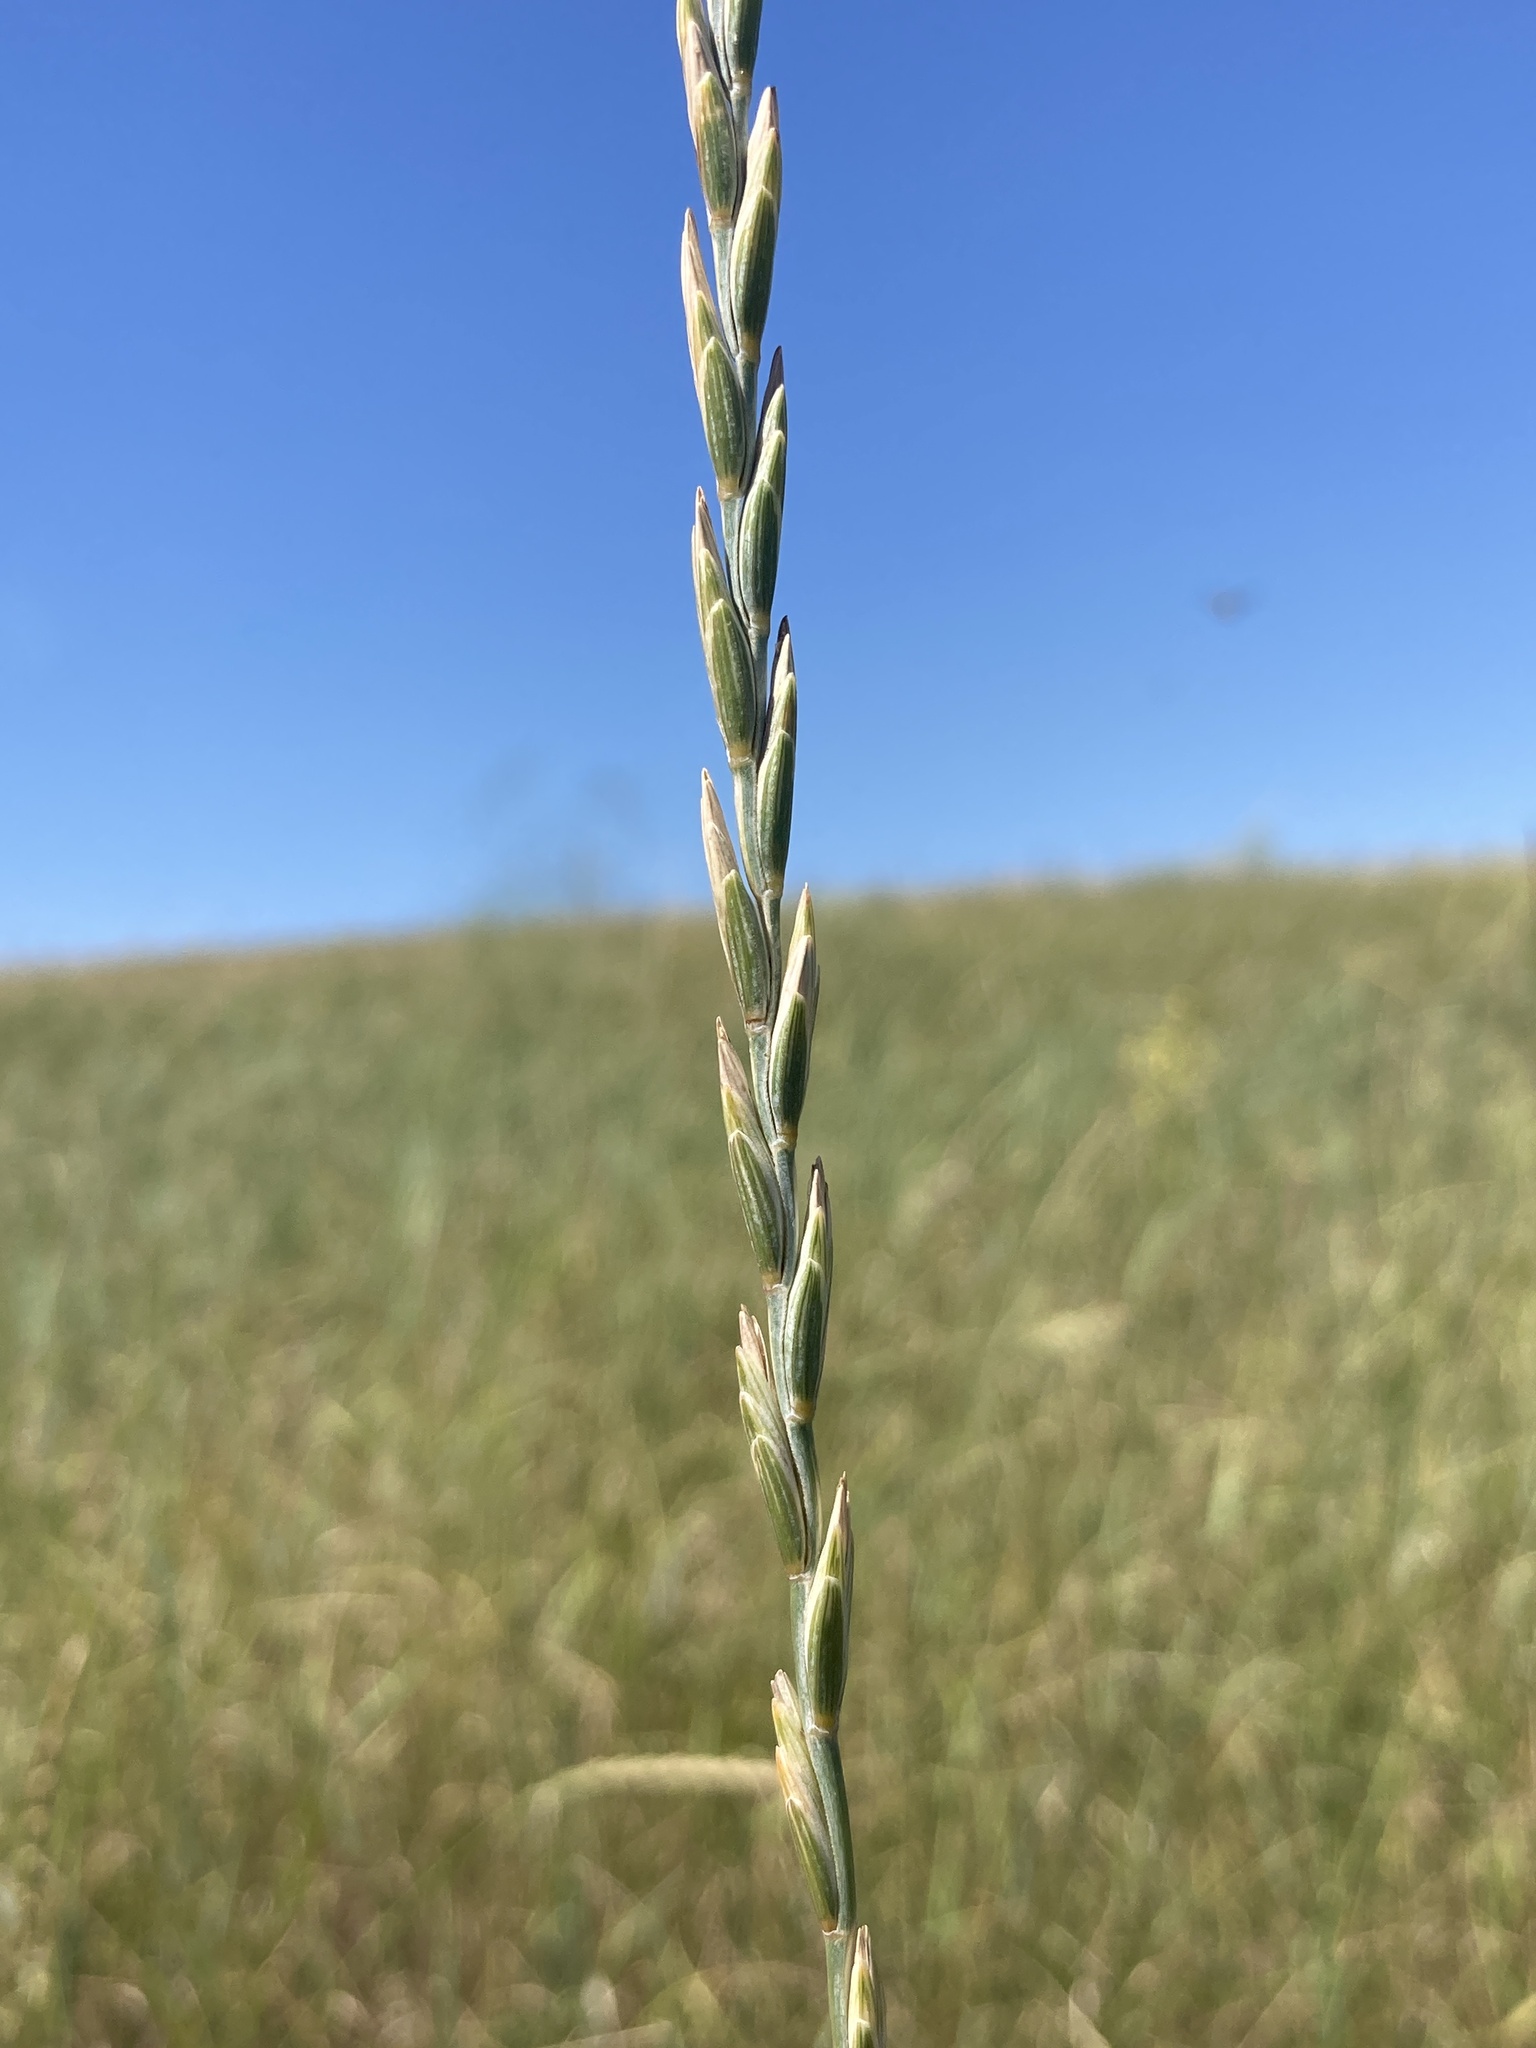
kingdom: Plantae
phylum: Tracheophyta
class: Liliopsida
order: Poales
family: Poaceae
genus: Thinopyrum
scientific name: Thinopyrum intermedium
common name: Intermediate wheatgrass
